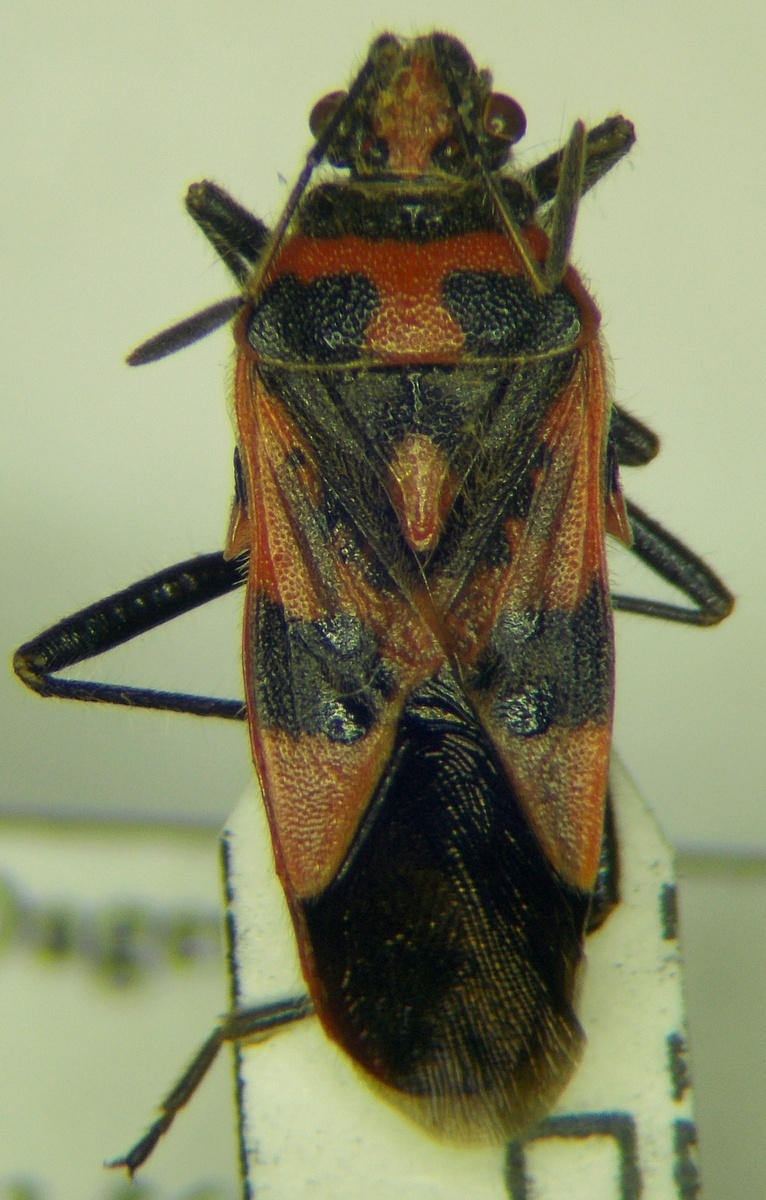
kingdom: Animalia
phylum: Arthropoda
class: Insecta
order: Hemiptera
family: Rhopalidae
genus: Corizus
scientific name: Corizus hyoscyami
